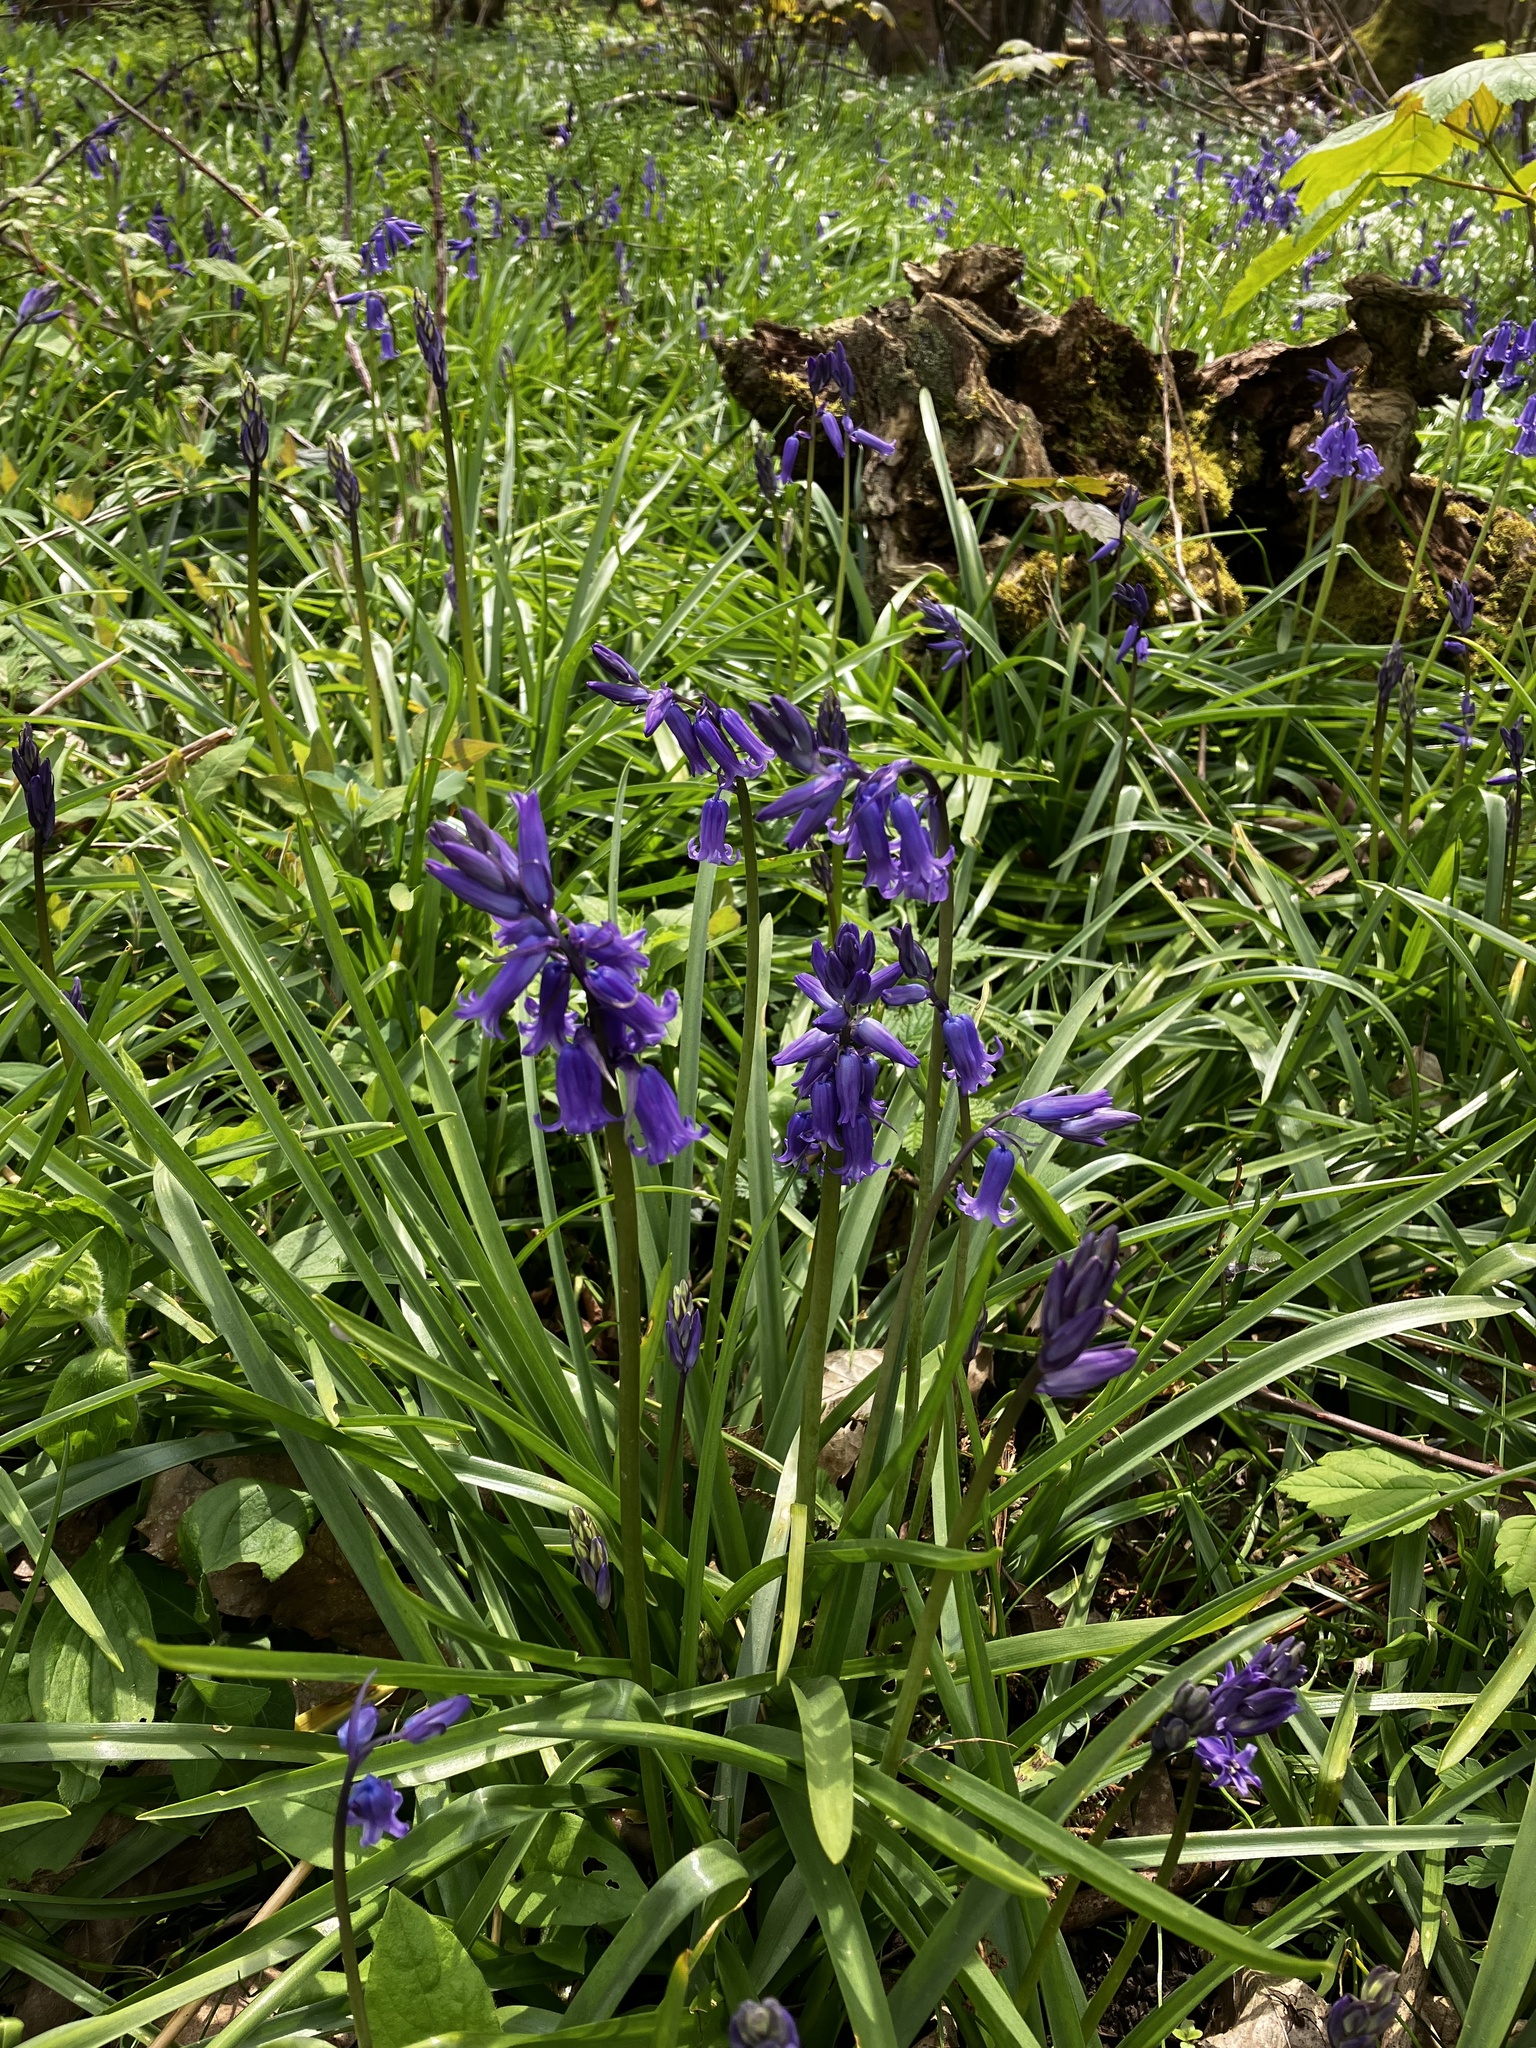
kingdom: Plantae
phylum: Tracheophyta
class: Liliopsida
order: Asparagales
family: Asparagaceae
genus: Hyacinthoides
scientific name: Hyacinthoides non-scripta
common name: Bluebell
